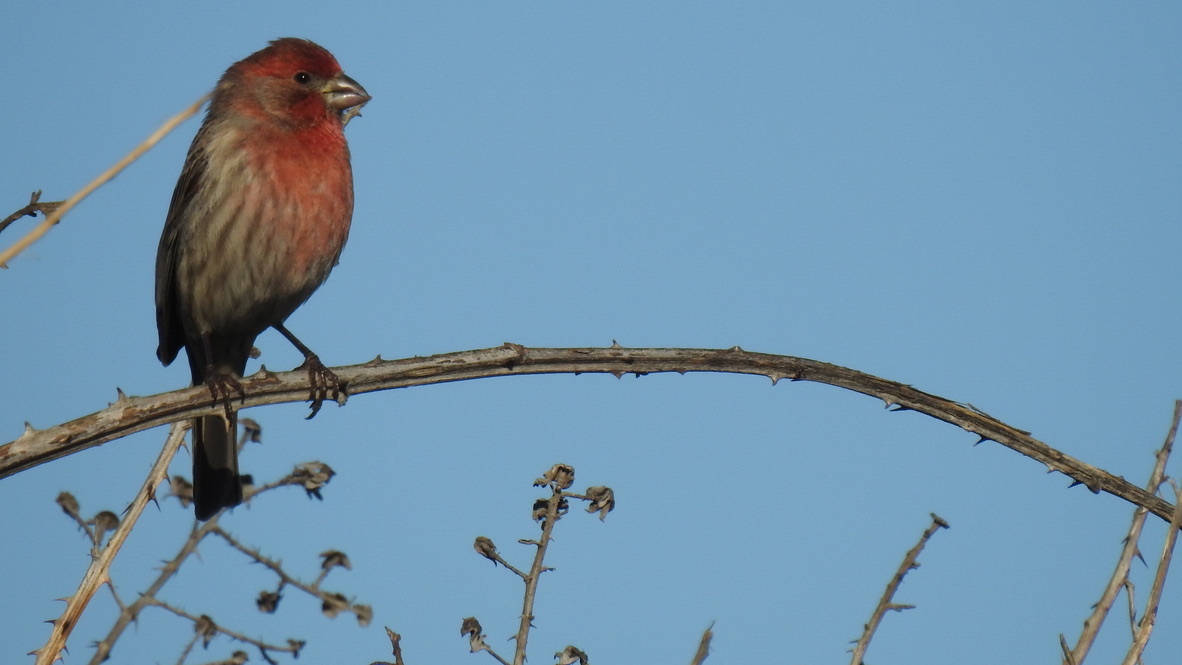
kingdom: Animalia
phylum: Chordata
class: Aves
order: Passeriformes
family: Fringillidae
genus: Haemorhous
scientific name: Haemorhous mexicanus
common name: House finch
